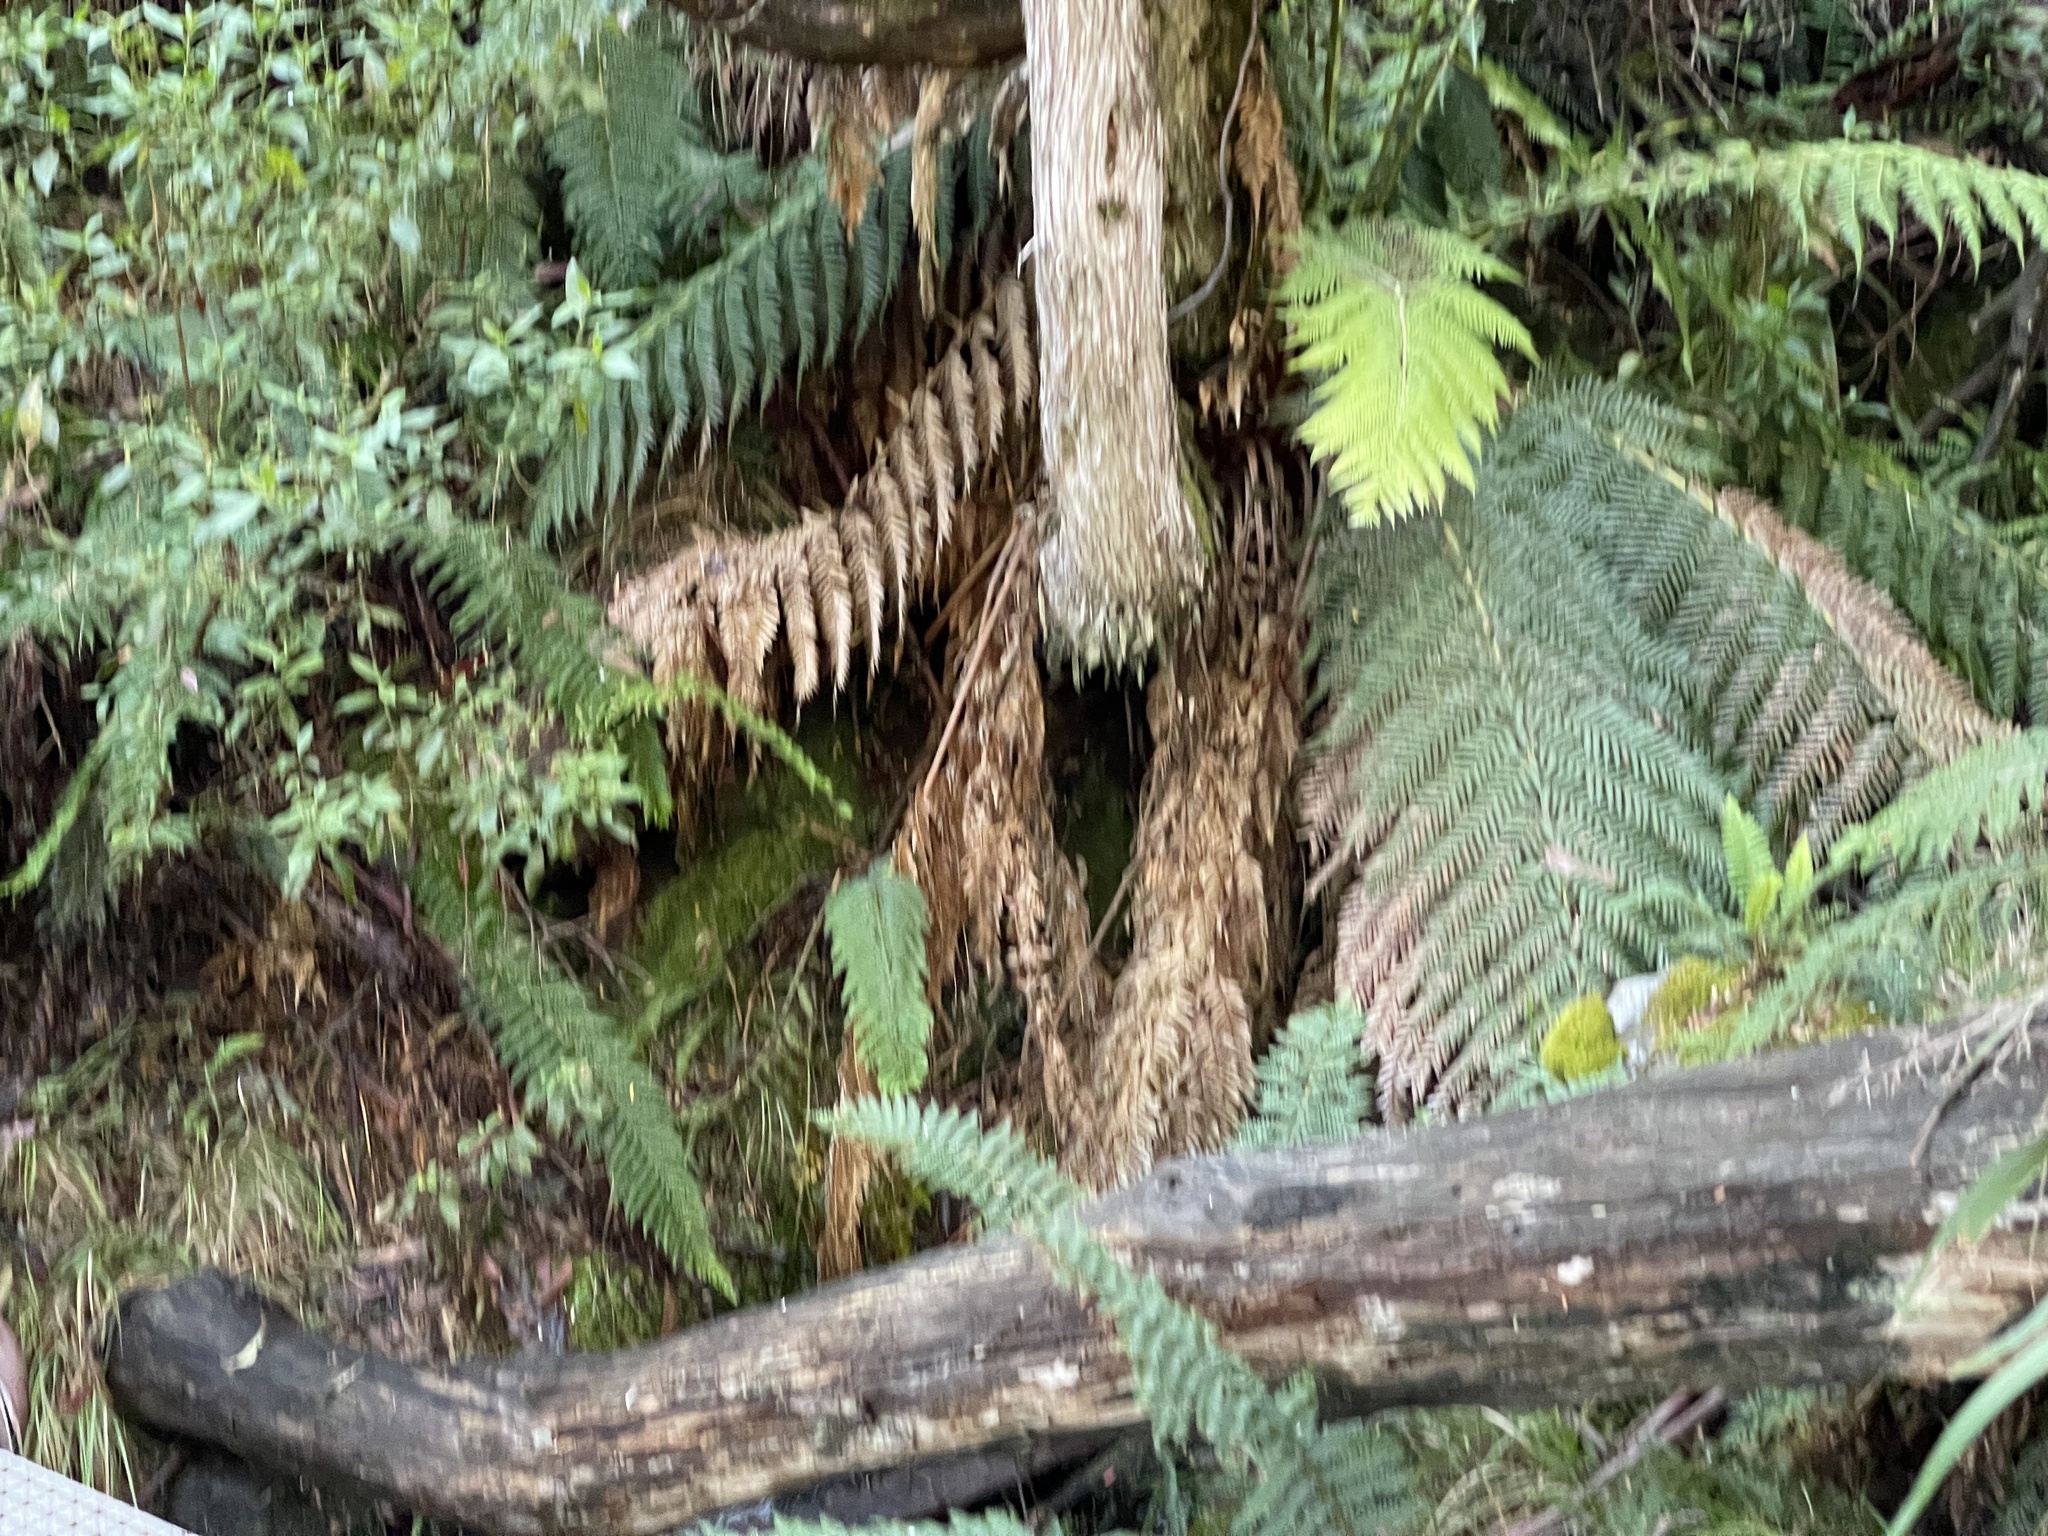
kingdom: Plantae
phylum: Tracheophyta
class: Polypodiopsida
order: Cyatheales
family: Dicksoniaceae
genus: Dicksonia
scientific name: Dicksonia antarctica
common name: Australian treefern
